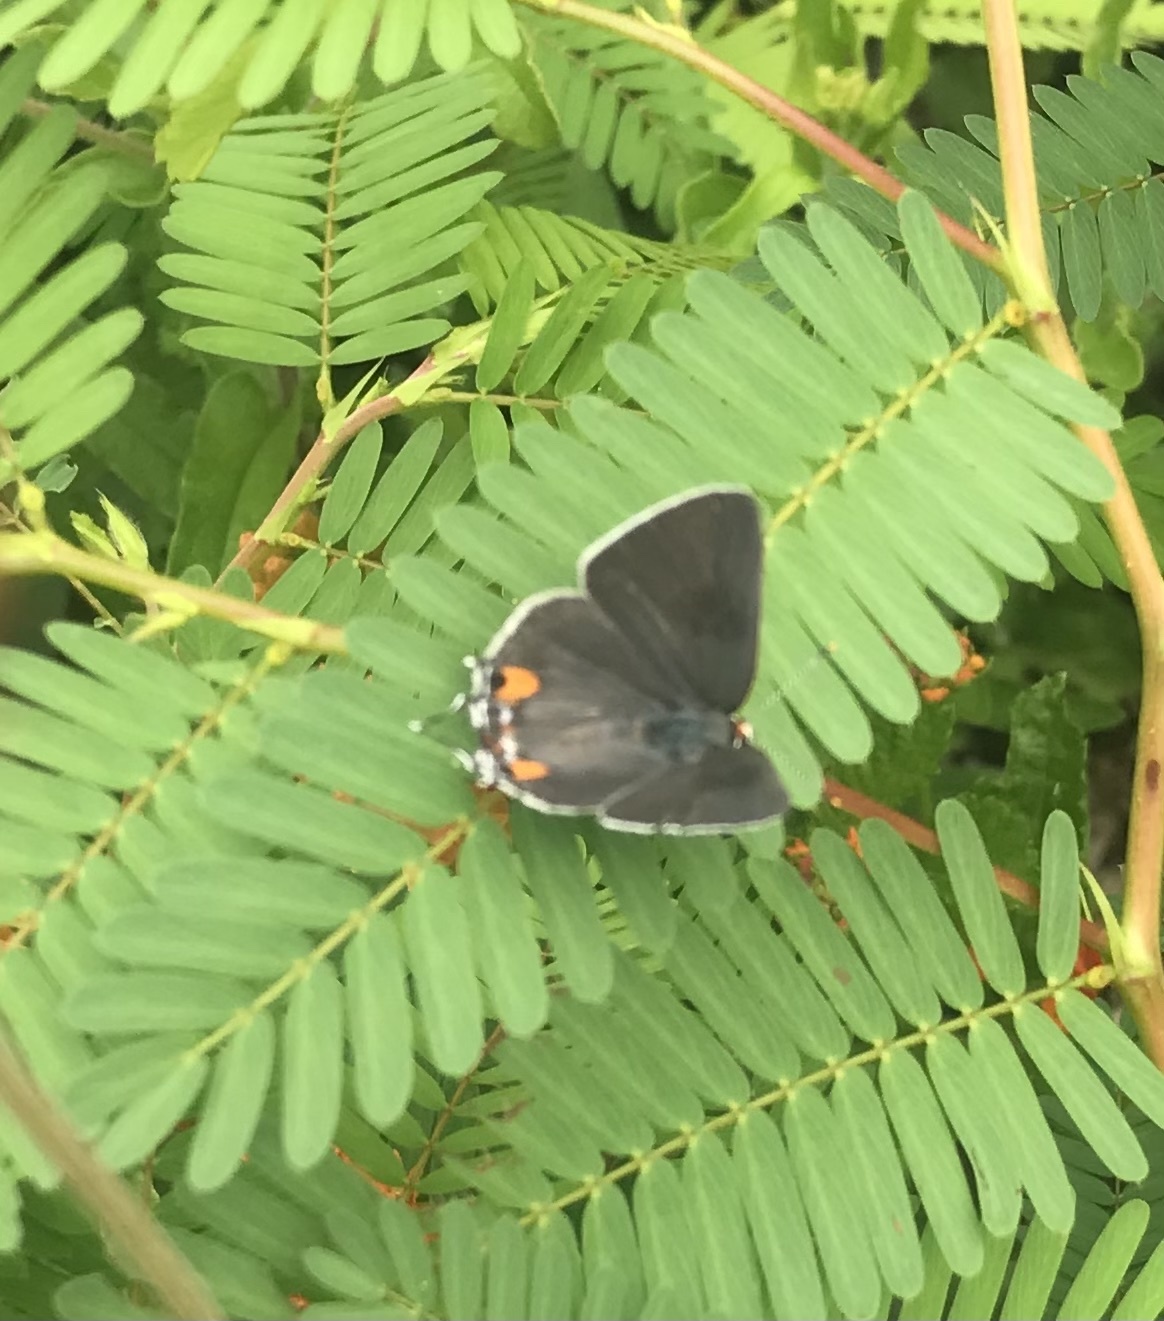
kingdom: Animalia
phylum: Arthropoda
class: Insecta
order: Lepidoptera
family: Lycaenidae
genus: Strymon
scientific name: Strymon melinus
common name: Gray hairstreak
